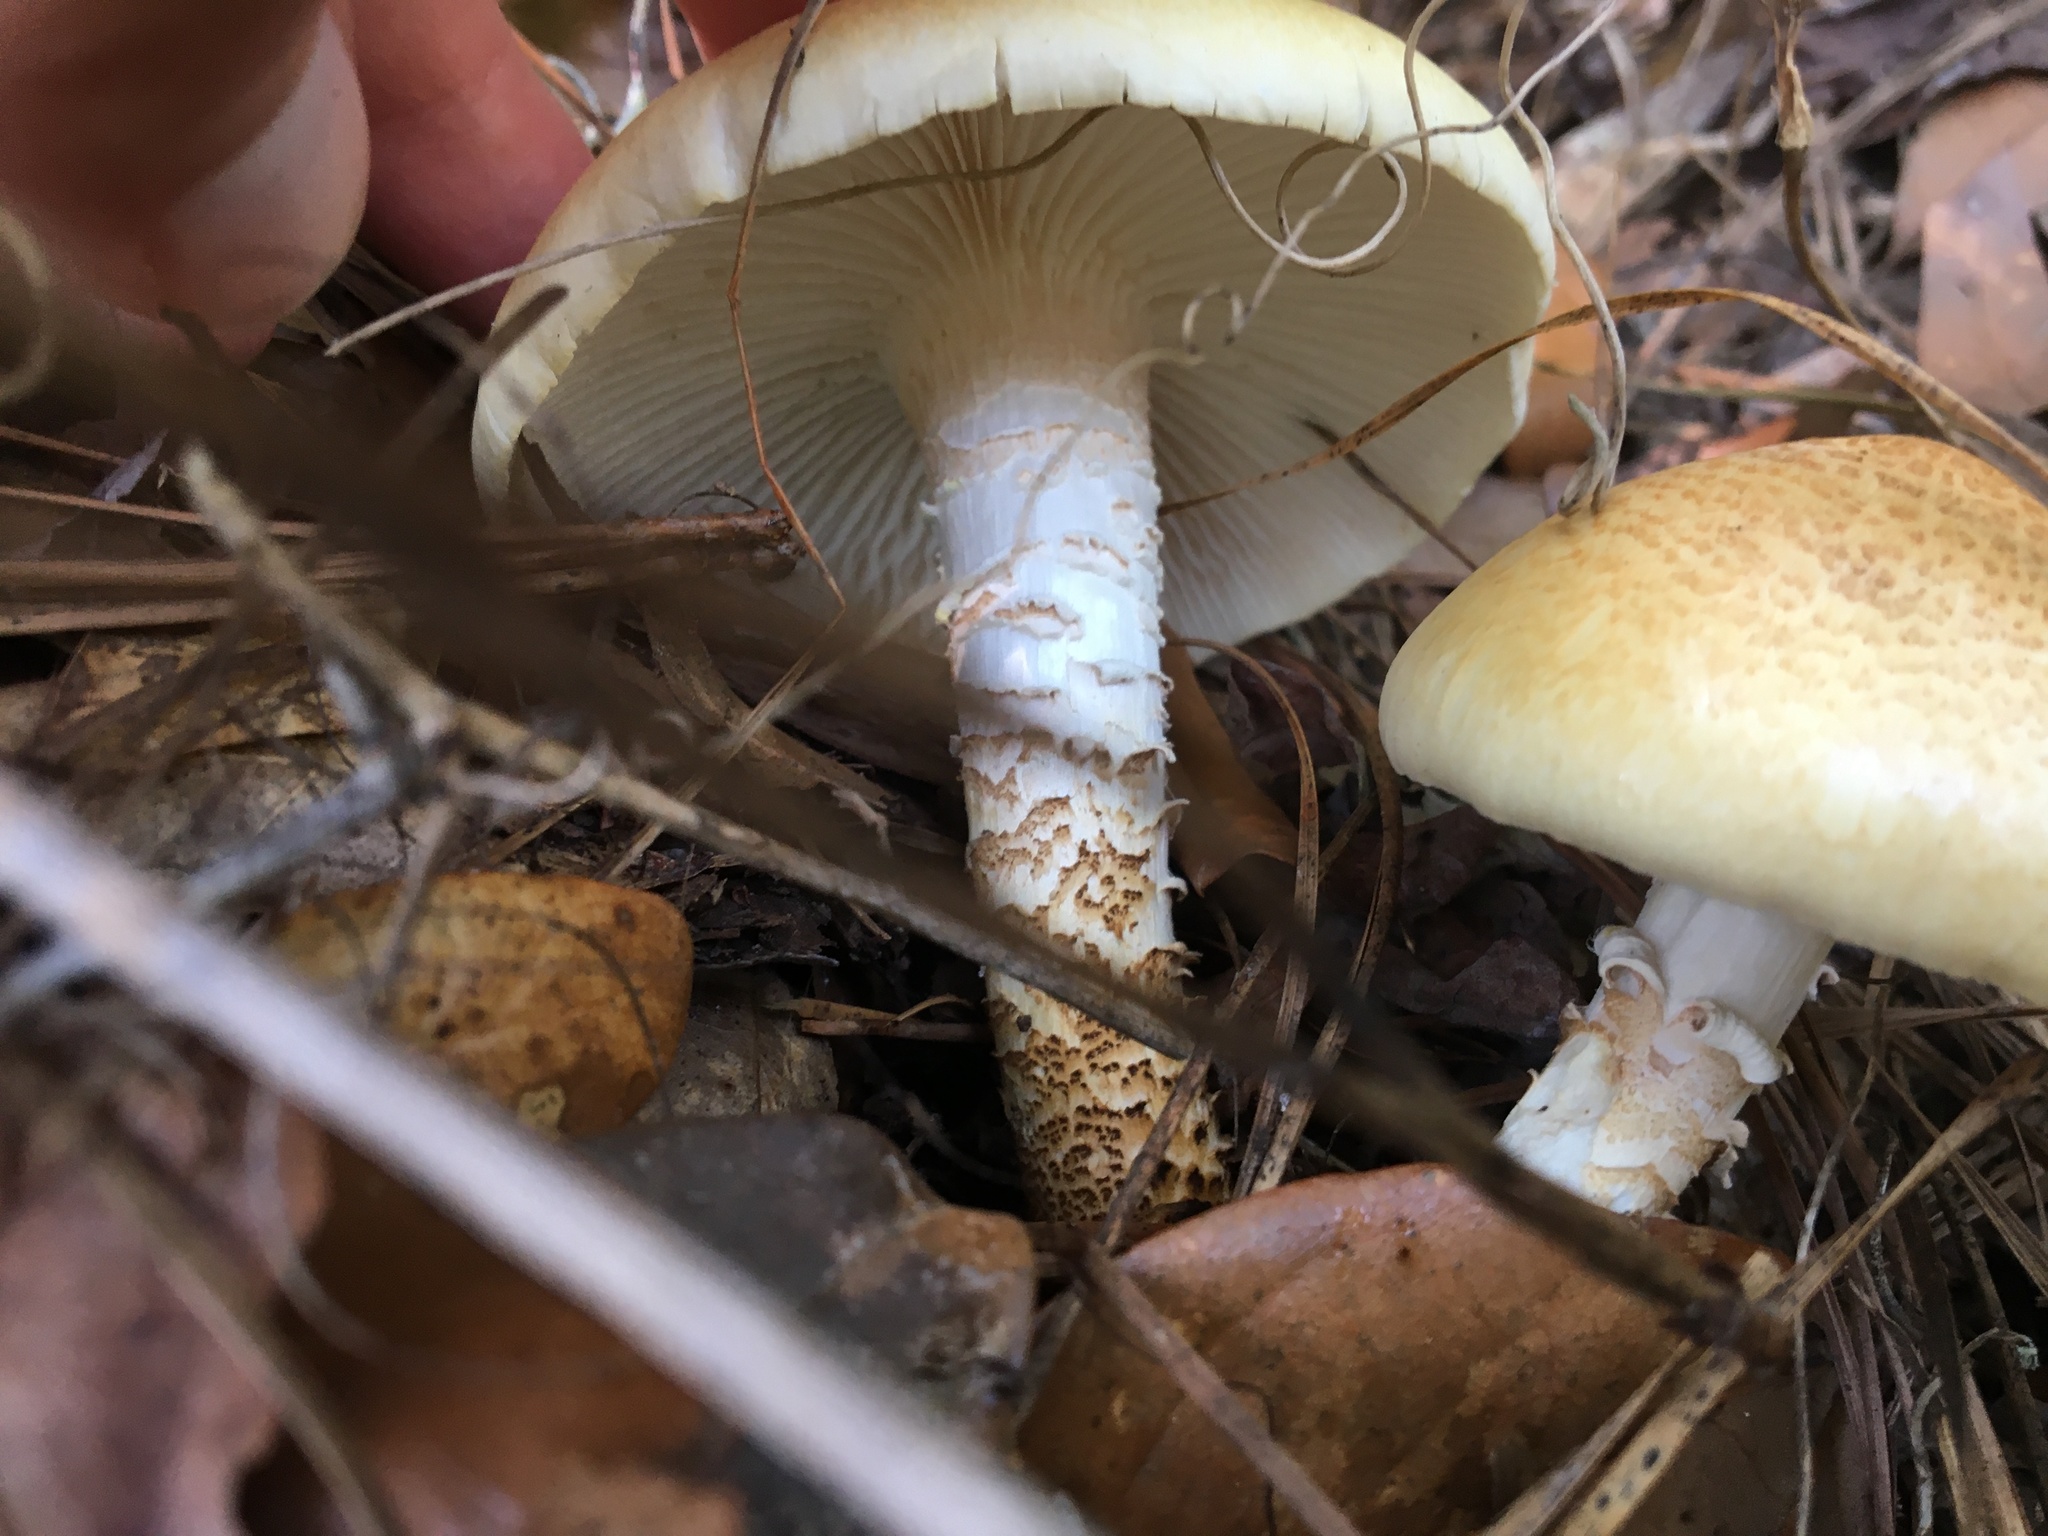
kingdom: Fungi
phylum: Basidiomycota
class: Agaricomycetes
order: Gloeophyllales
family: Gloeophyllaceae
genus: Neolentinus
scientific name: Neolentinus lepideus
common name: Scaly sawgill
